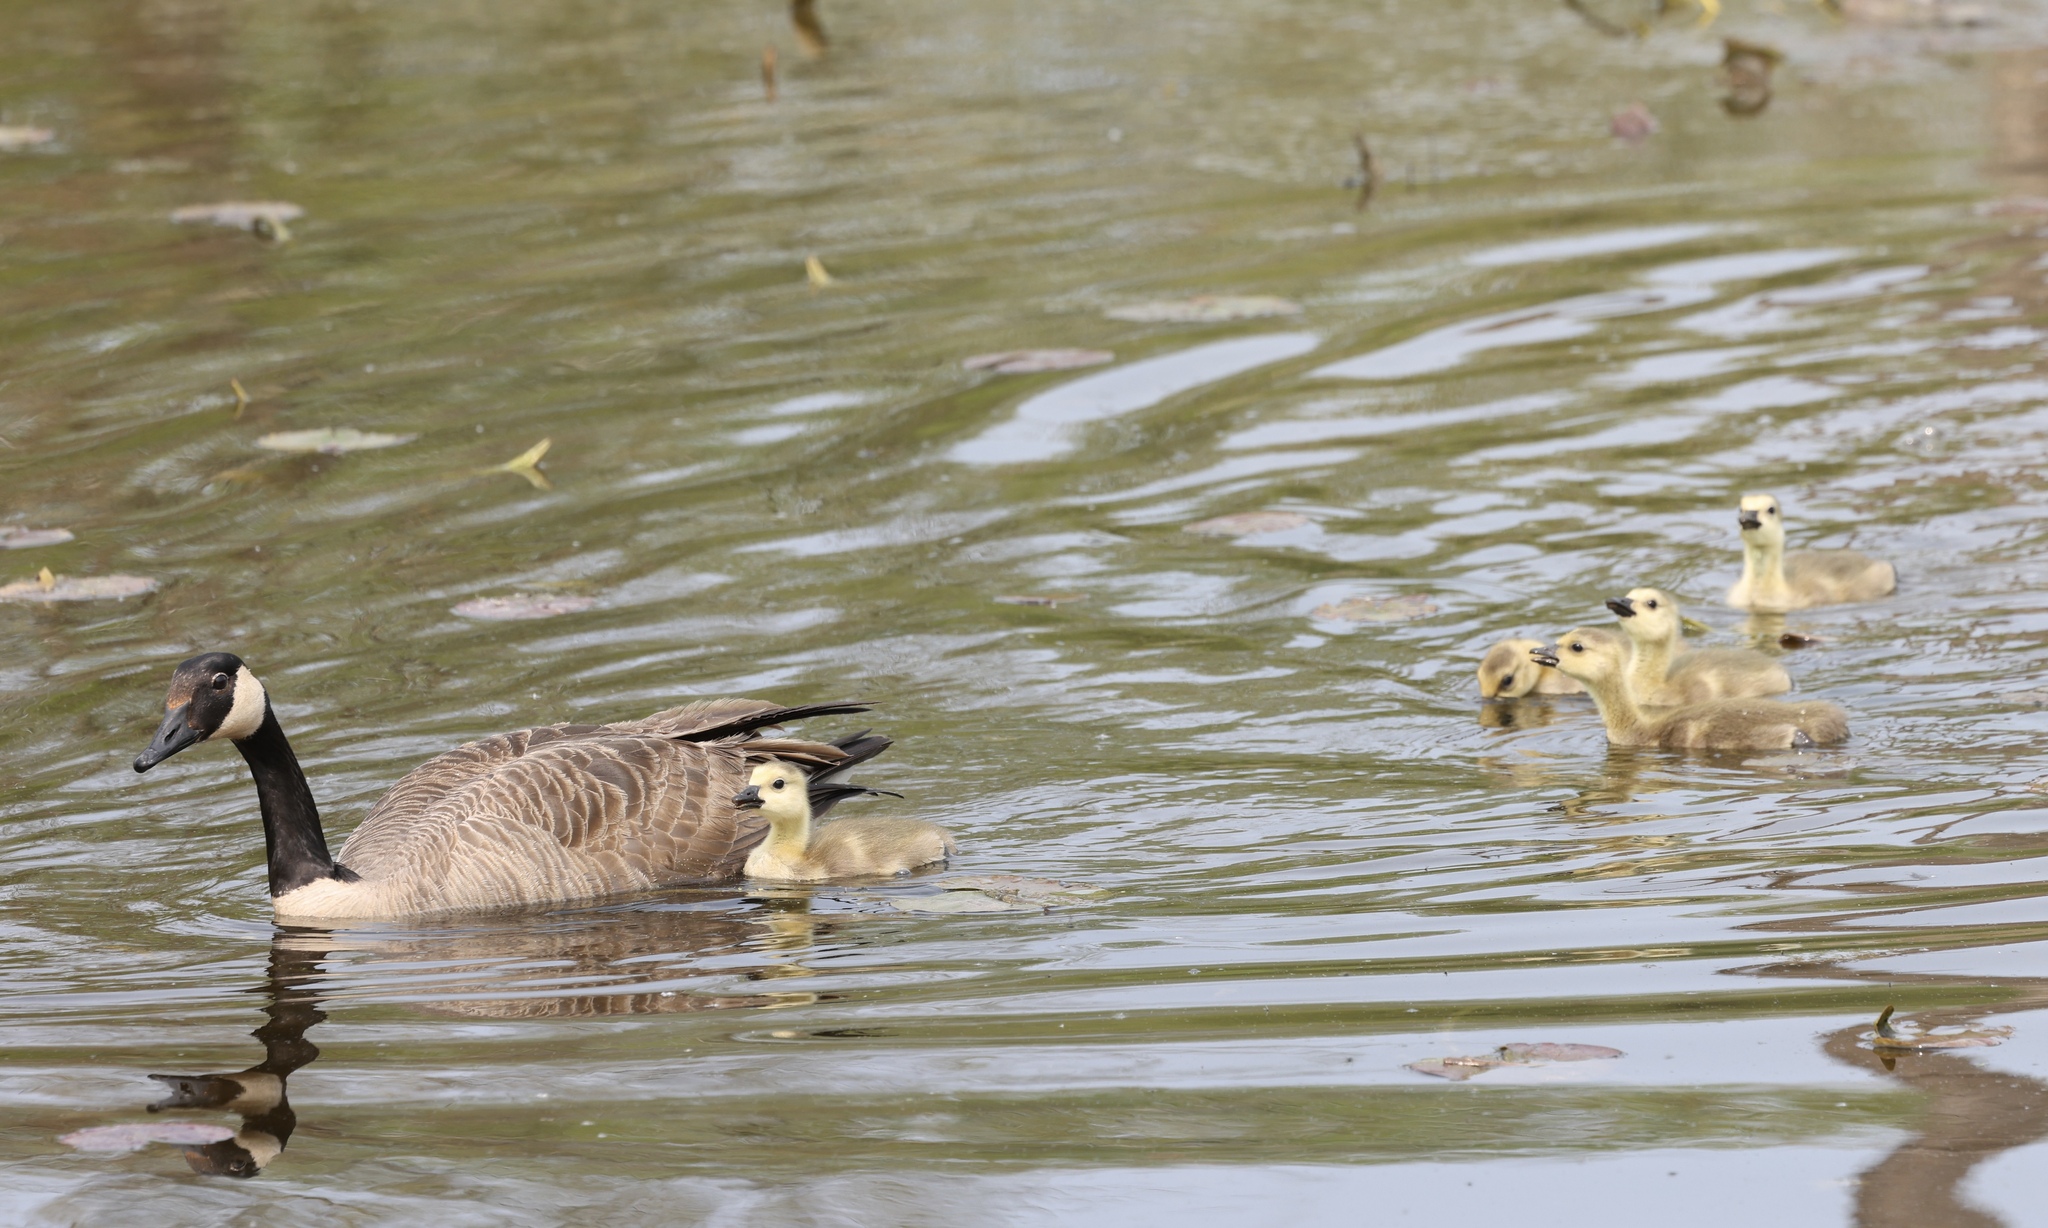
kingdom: Animalia
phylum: Chordata
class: Aves
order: Anseriformes
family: Anatidae
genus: Branta
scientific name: Branta canadensis
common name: Canada goose
